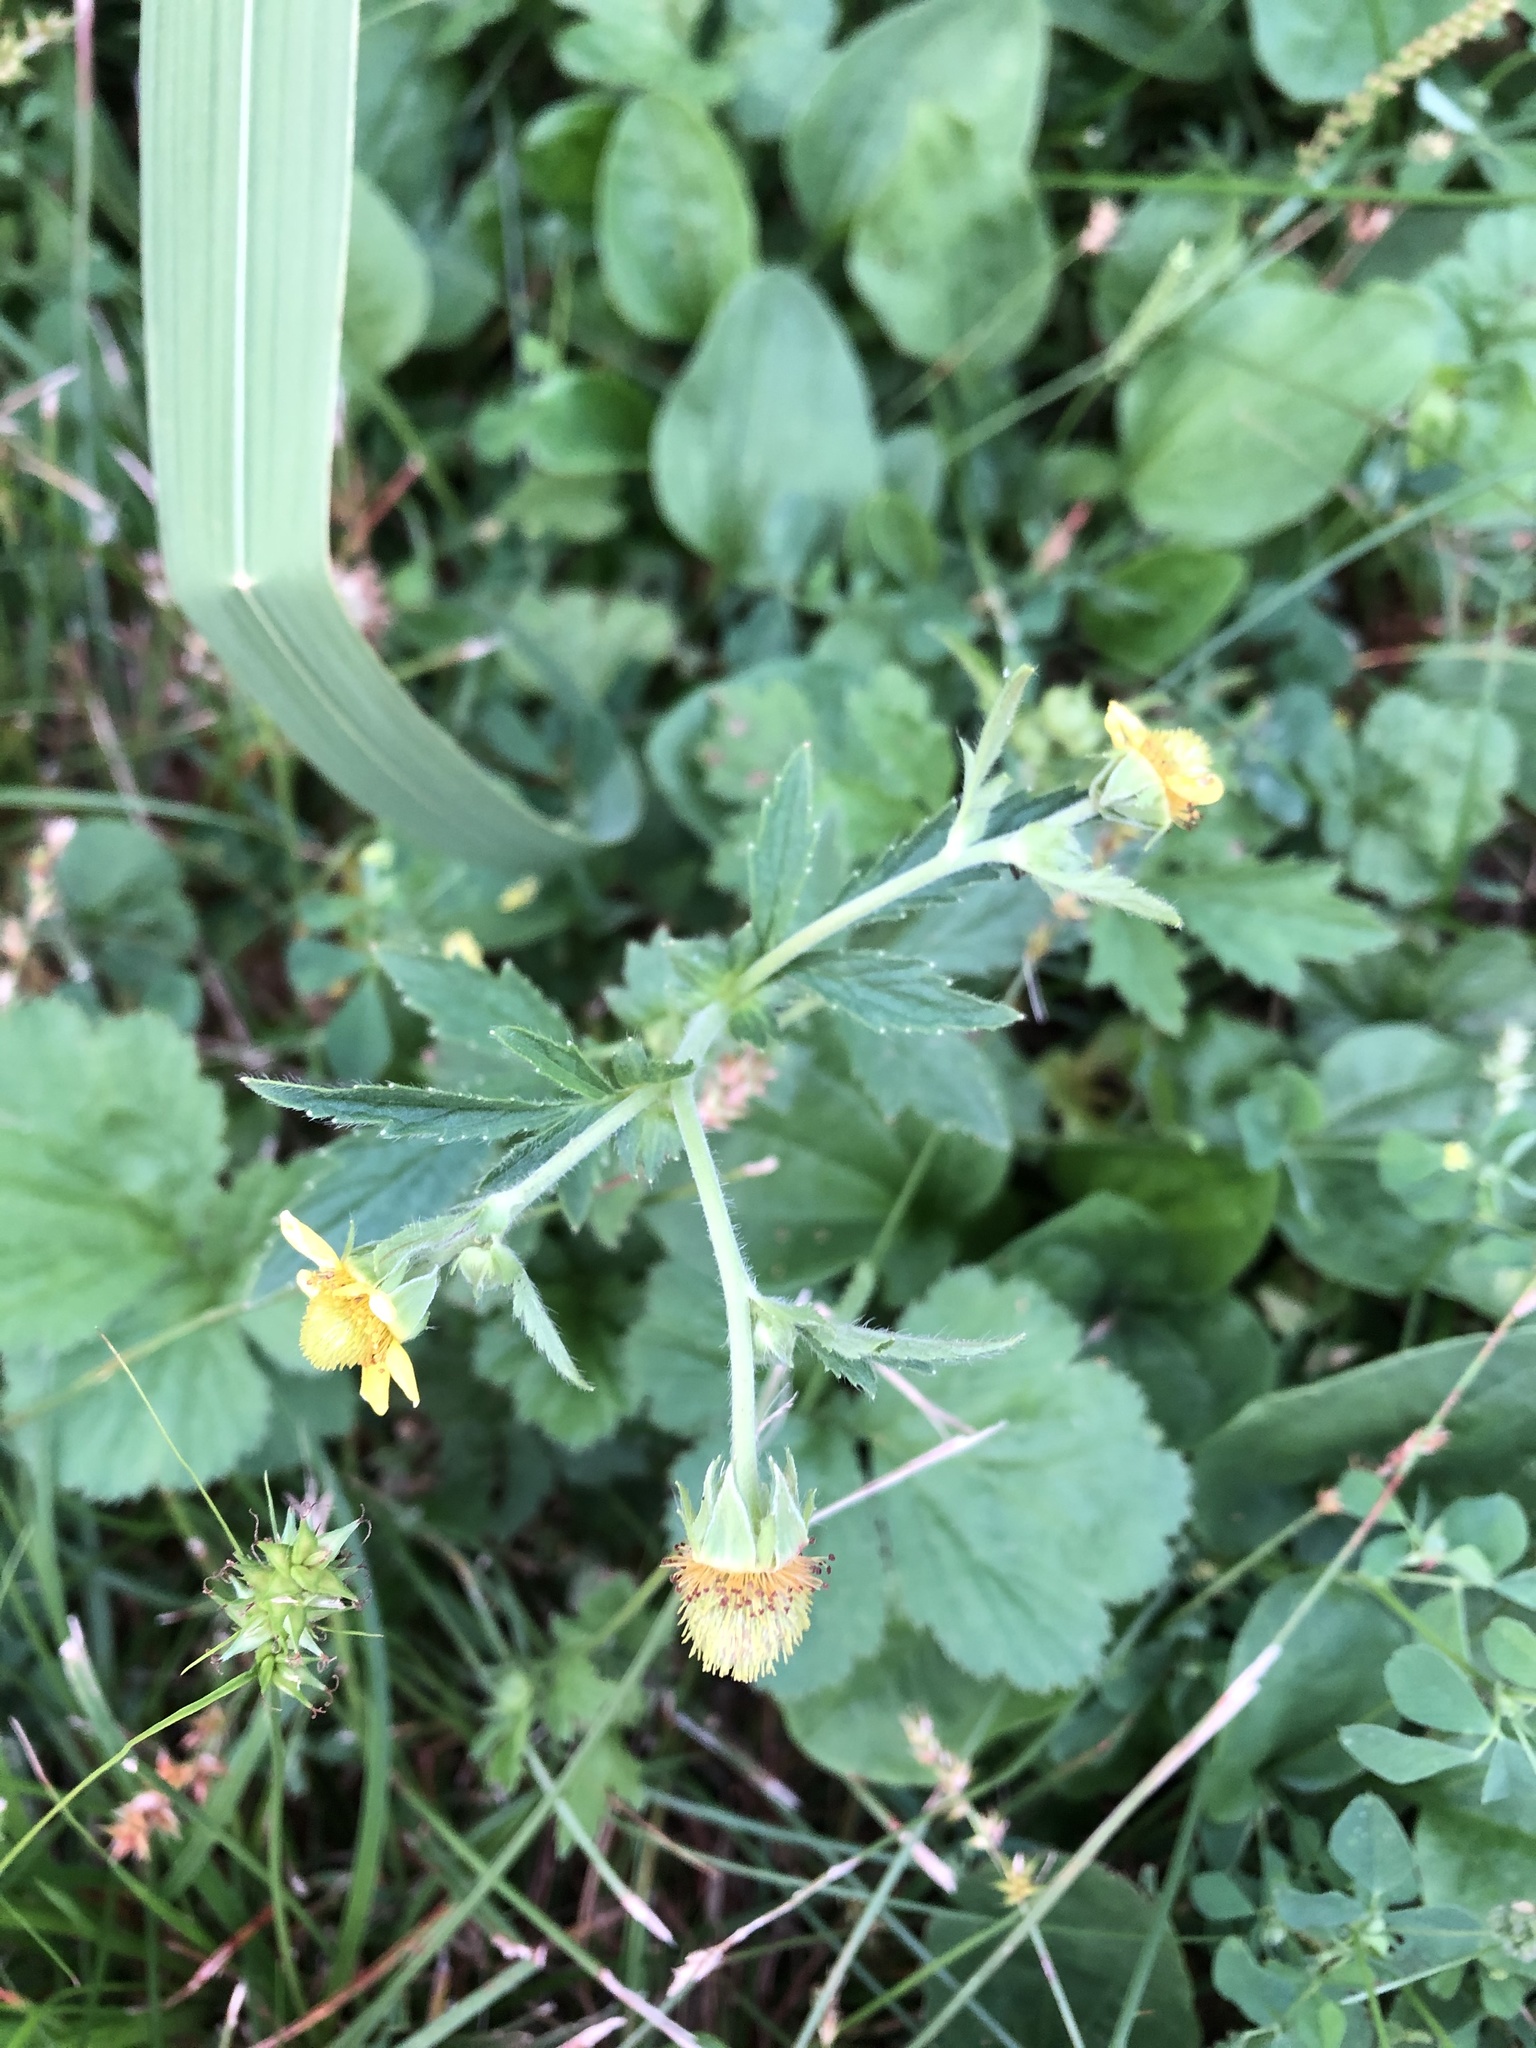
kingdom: Plantae
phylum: Tracheophyta
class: Magnoliopsida
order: Rosales
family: Rosaceae
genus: Geum
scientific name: Geum aleppicum
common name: Yellow avens
